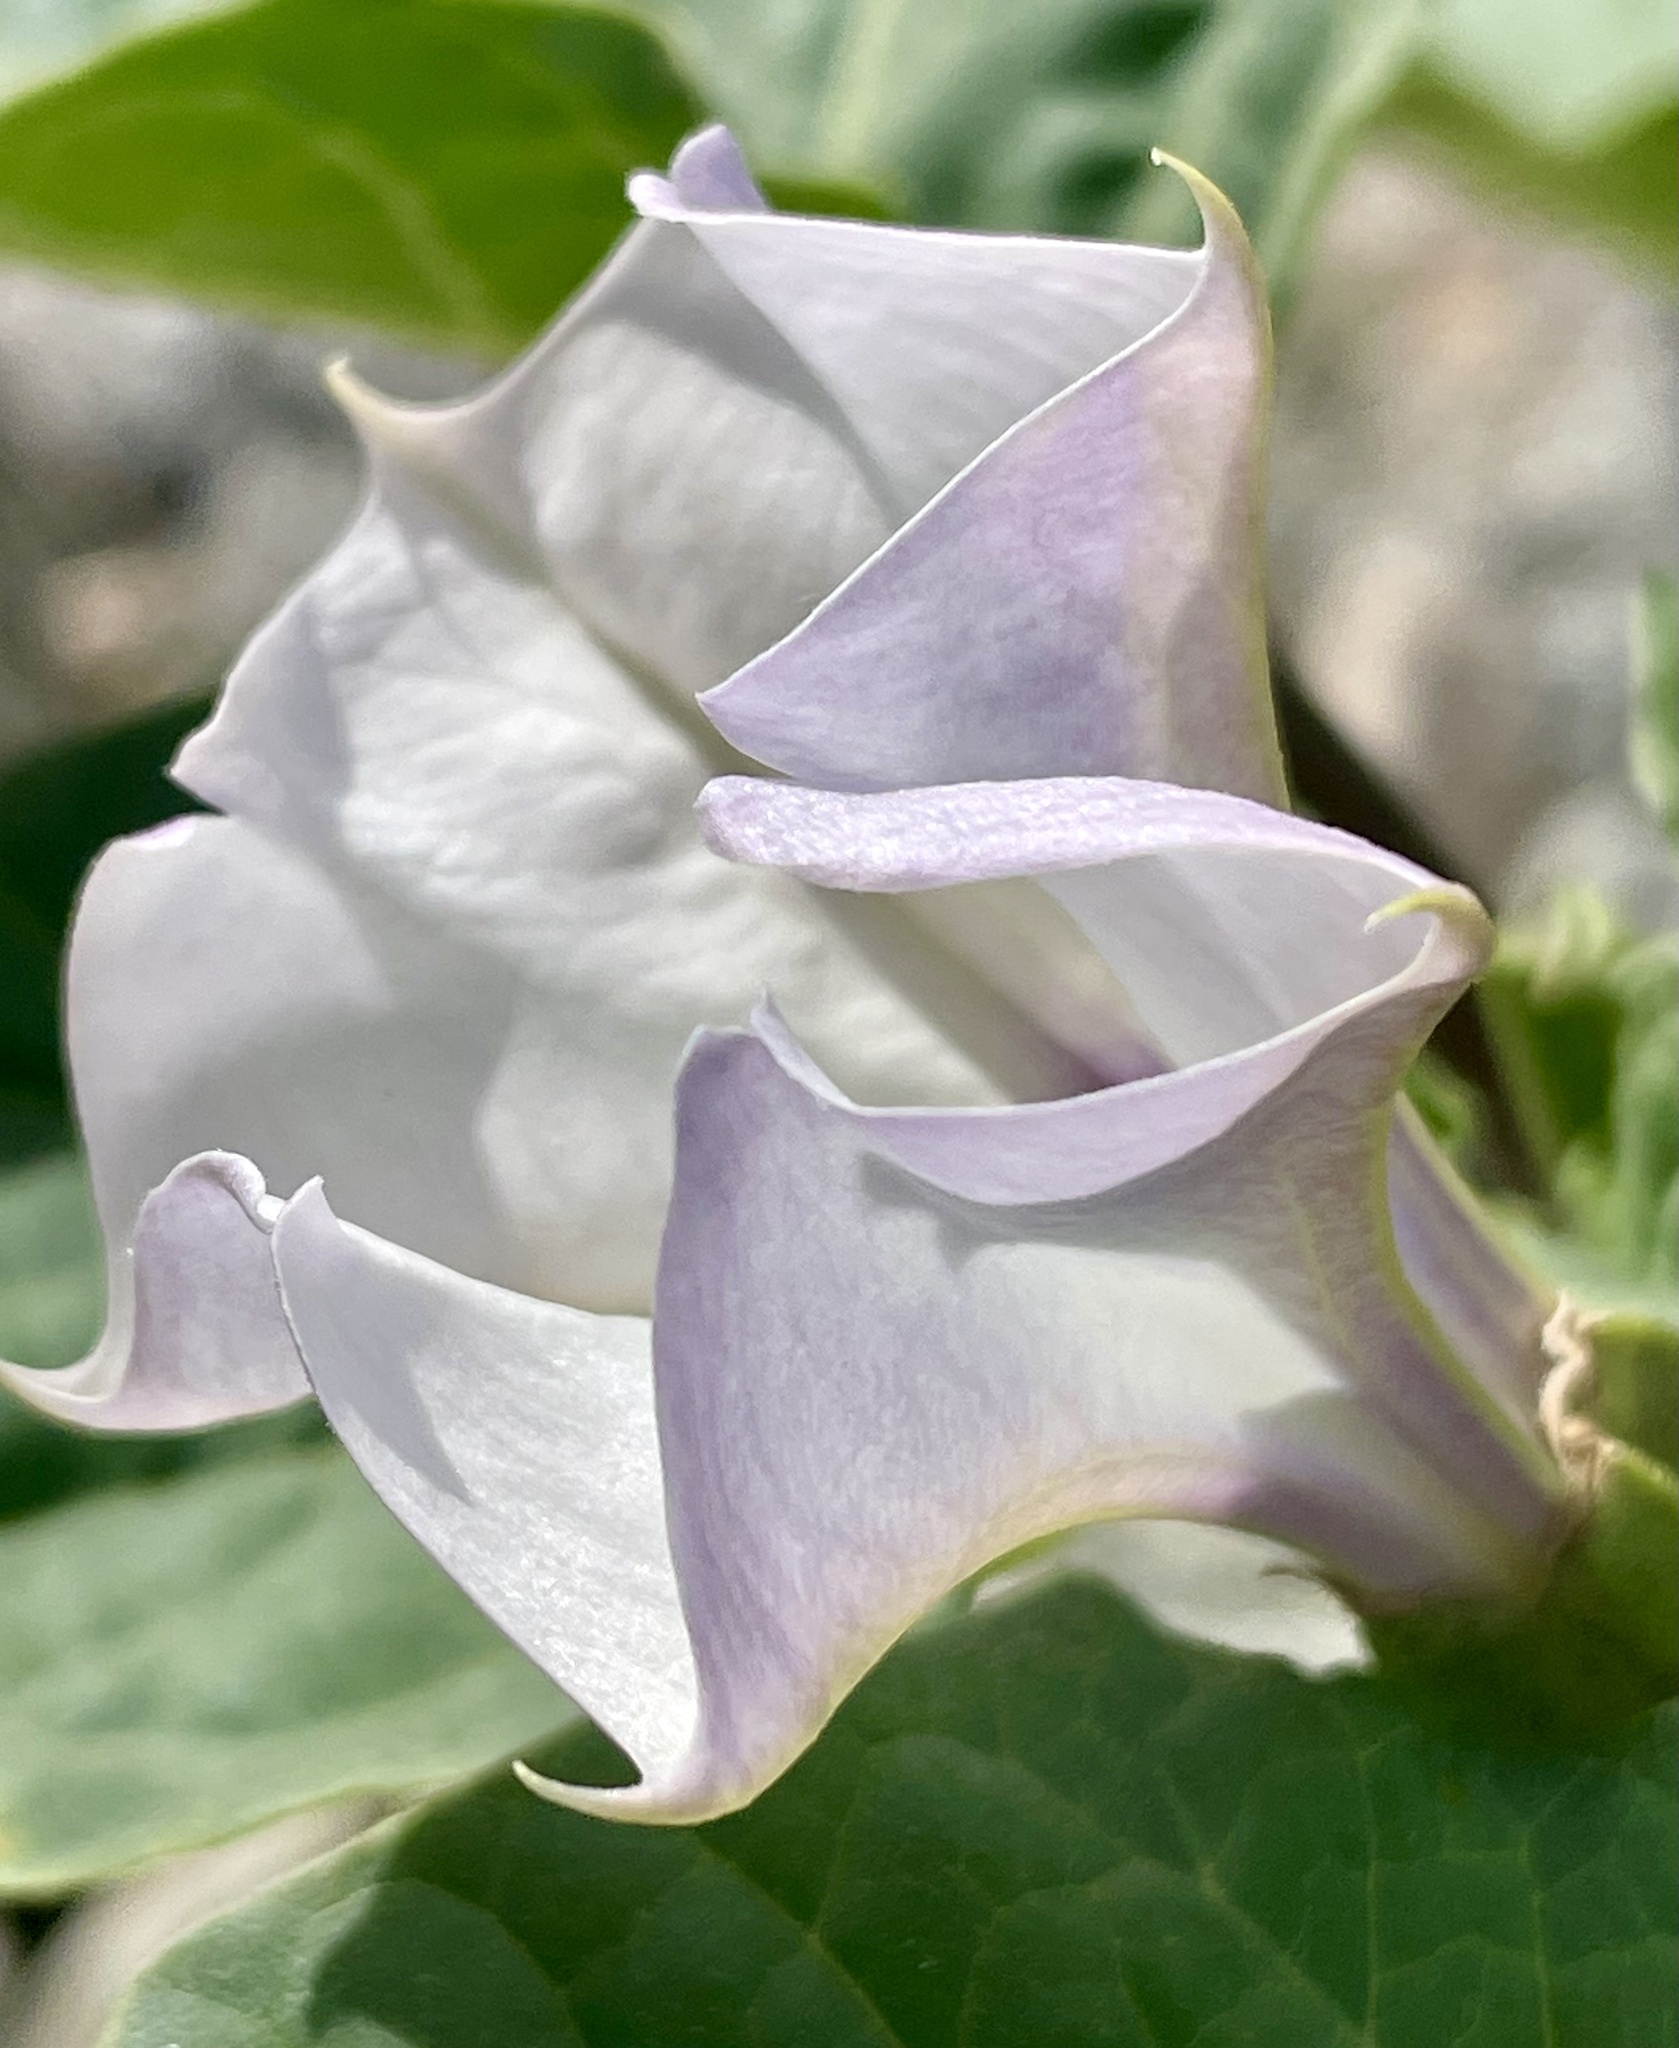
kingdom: Plantae
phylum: Tracheophyta
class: Magnoliopsida
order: Solanales
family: Solanaceae
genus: Datura
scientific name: Datura discolor
